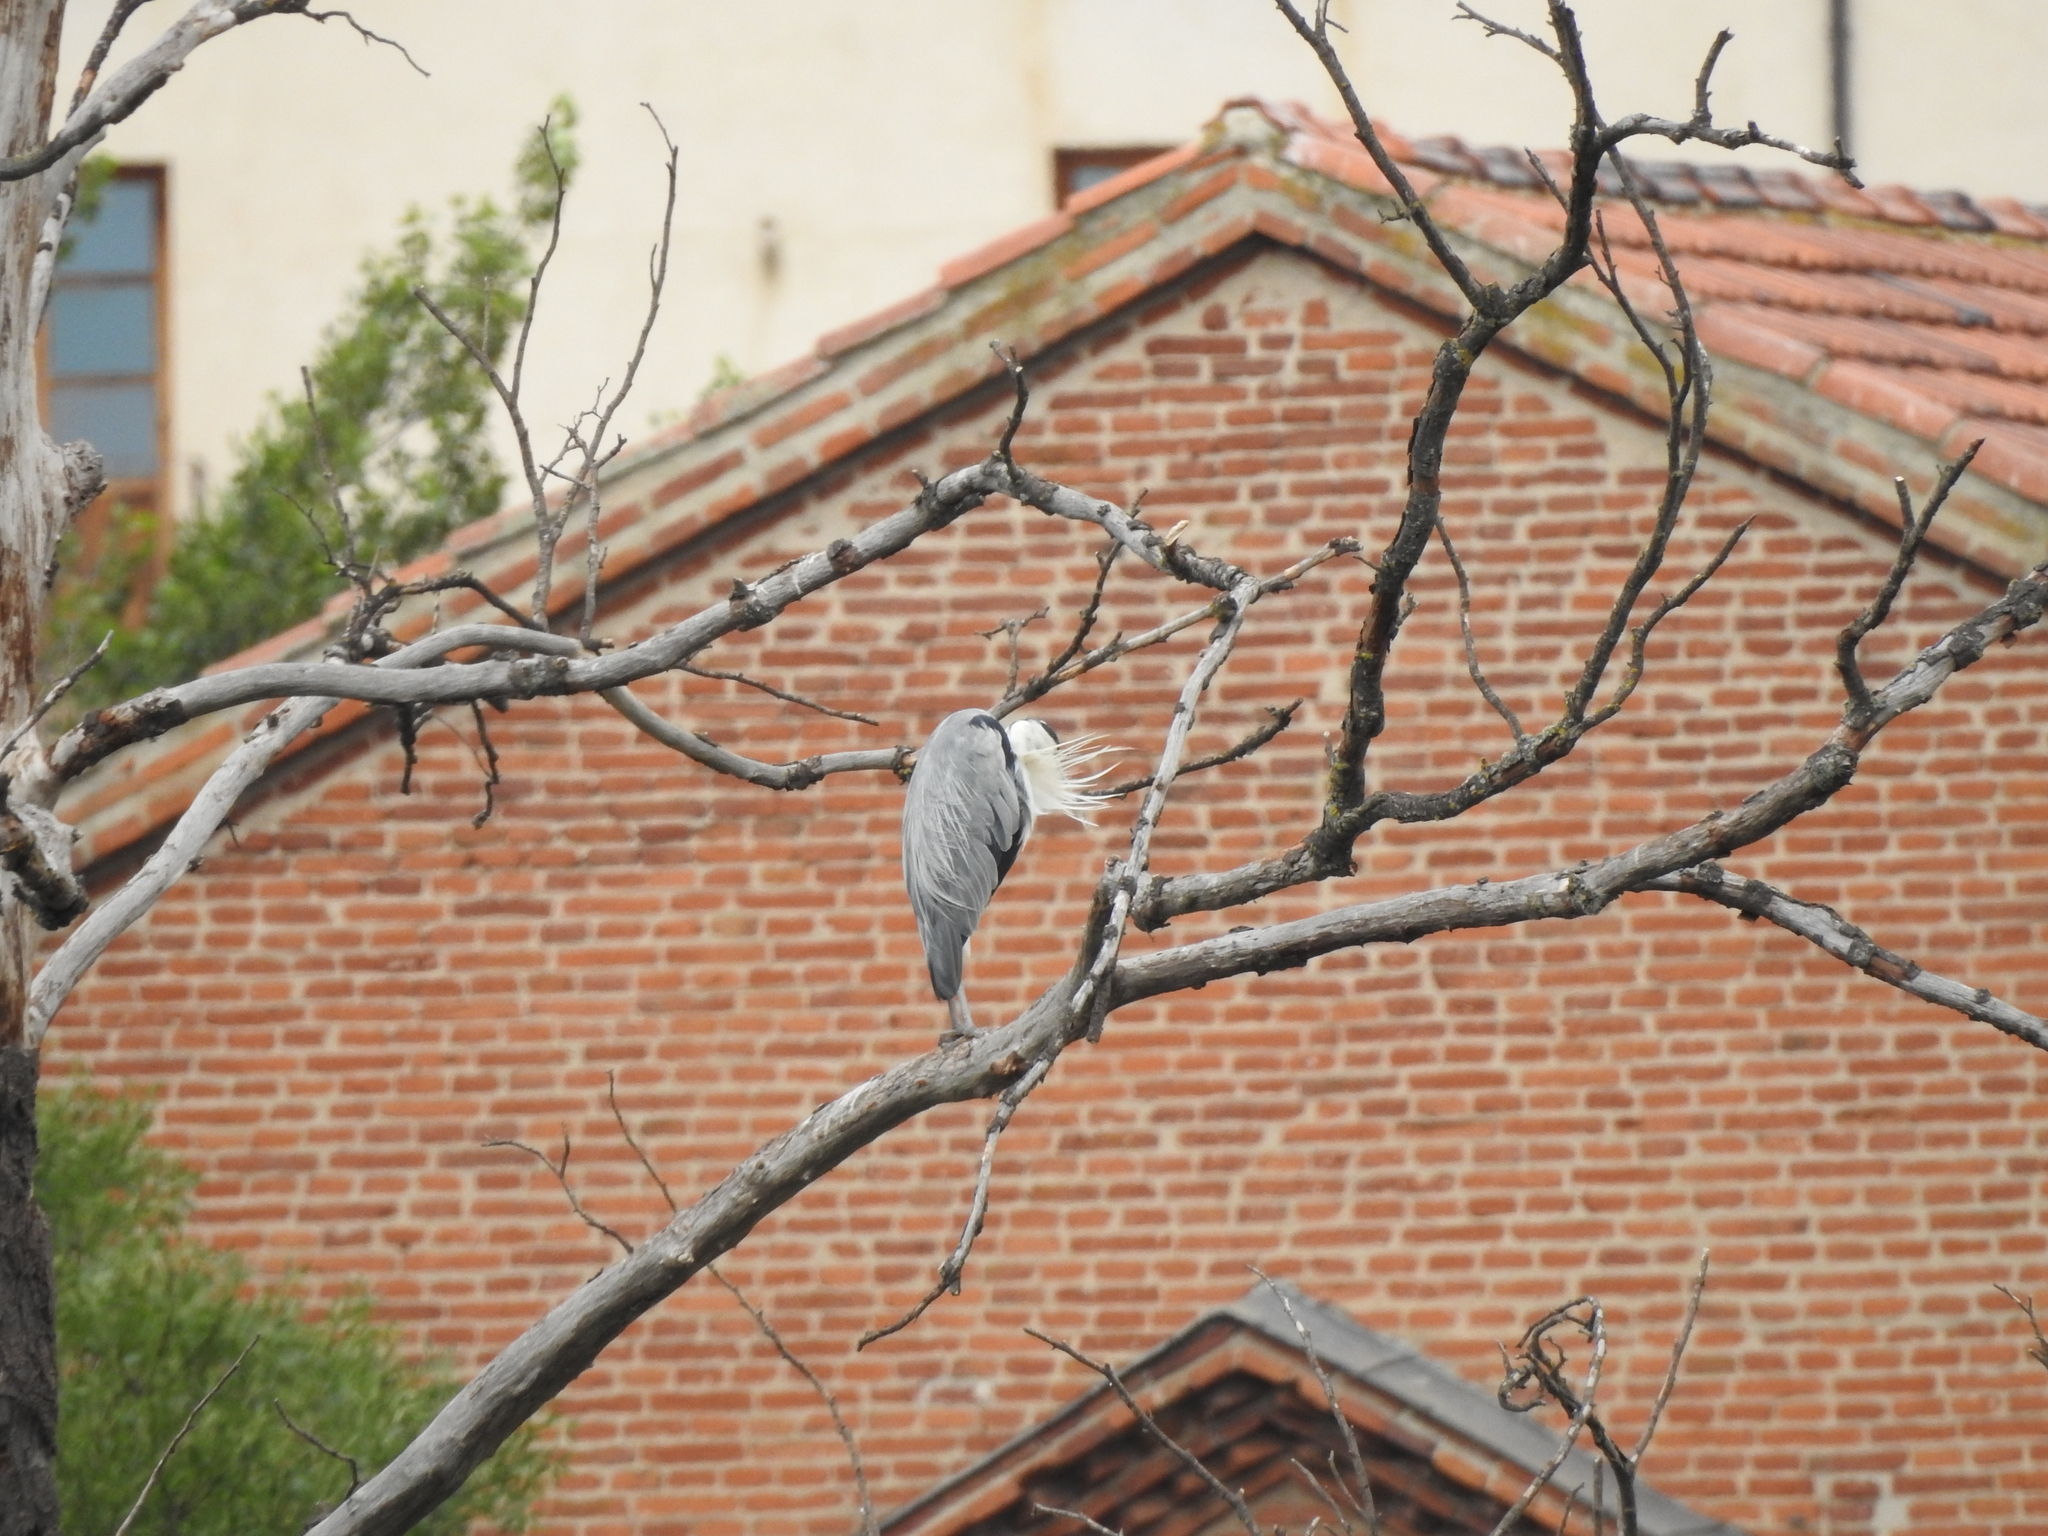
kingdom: Animalia
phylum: Chordata
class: Aves
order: Pelecaniformes
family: Ardeidae
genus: Ardea
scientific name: Ardea cinerea
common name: Grey heron
